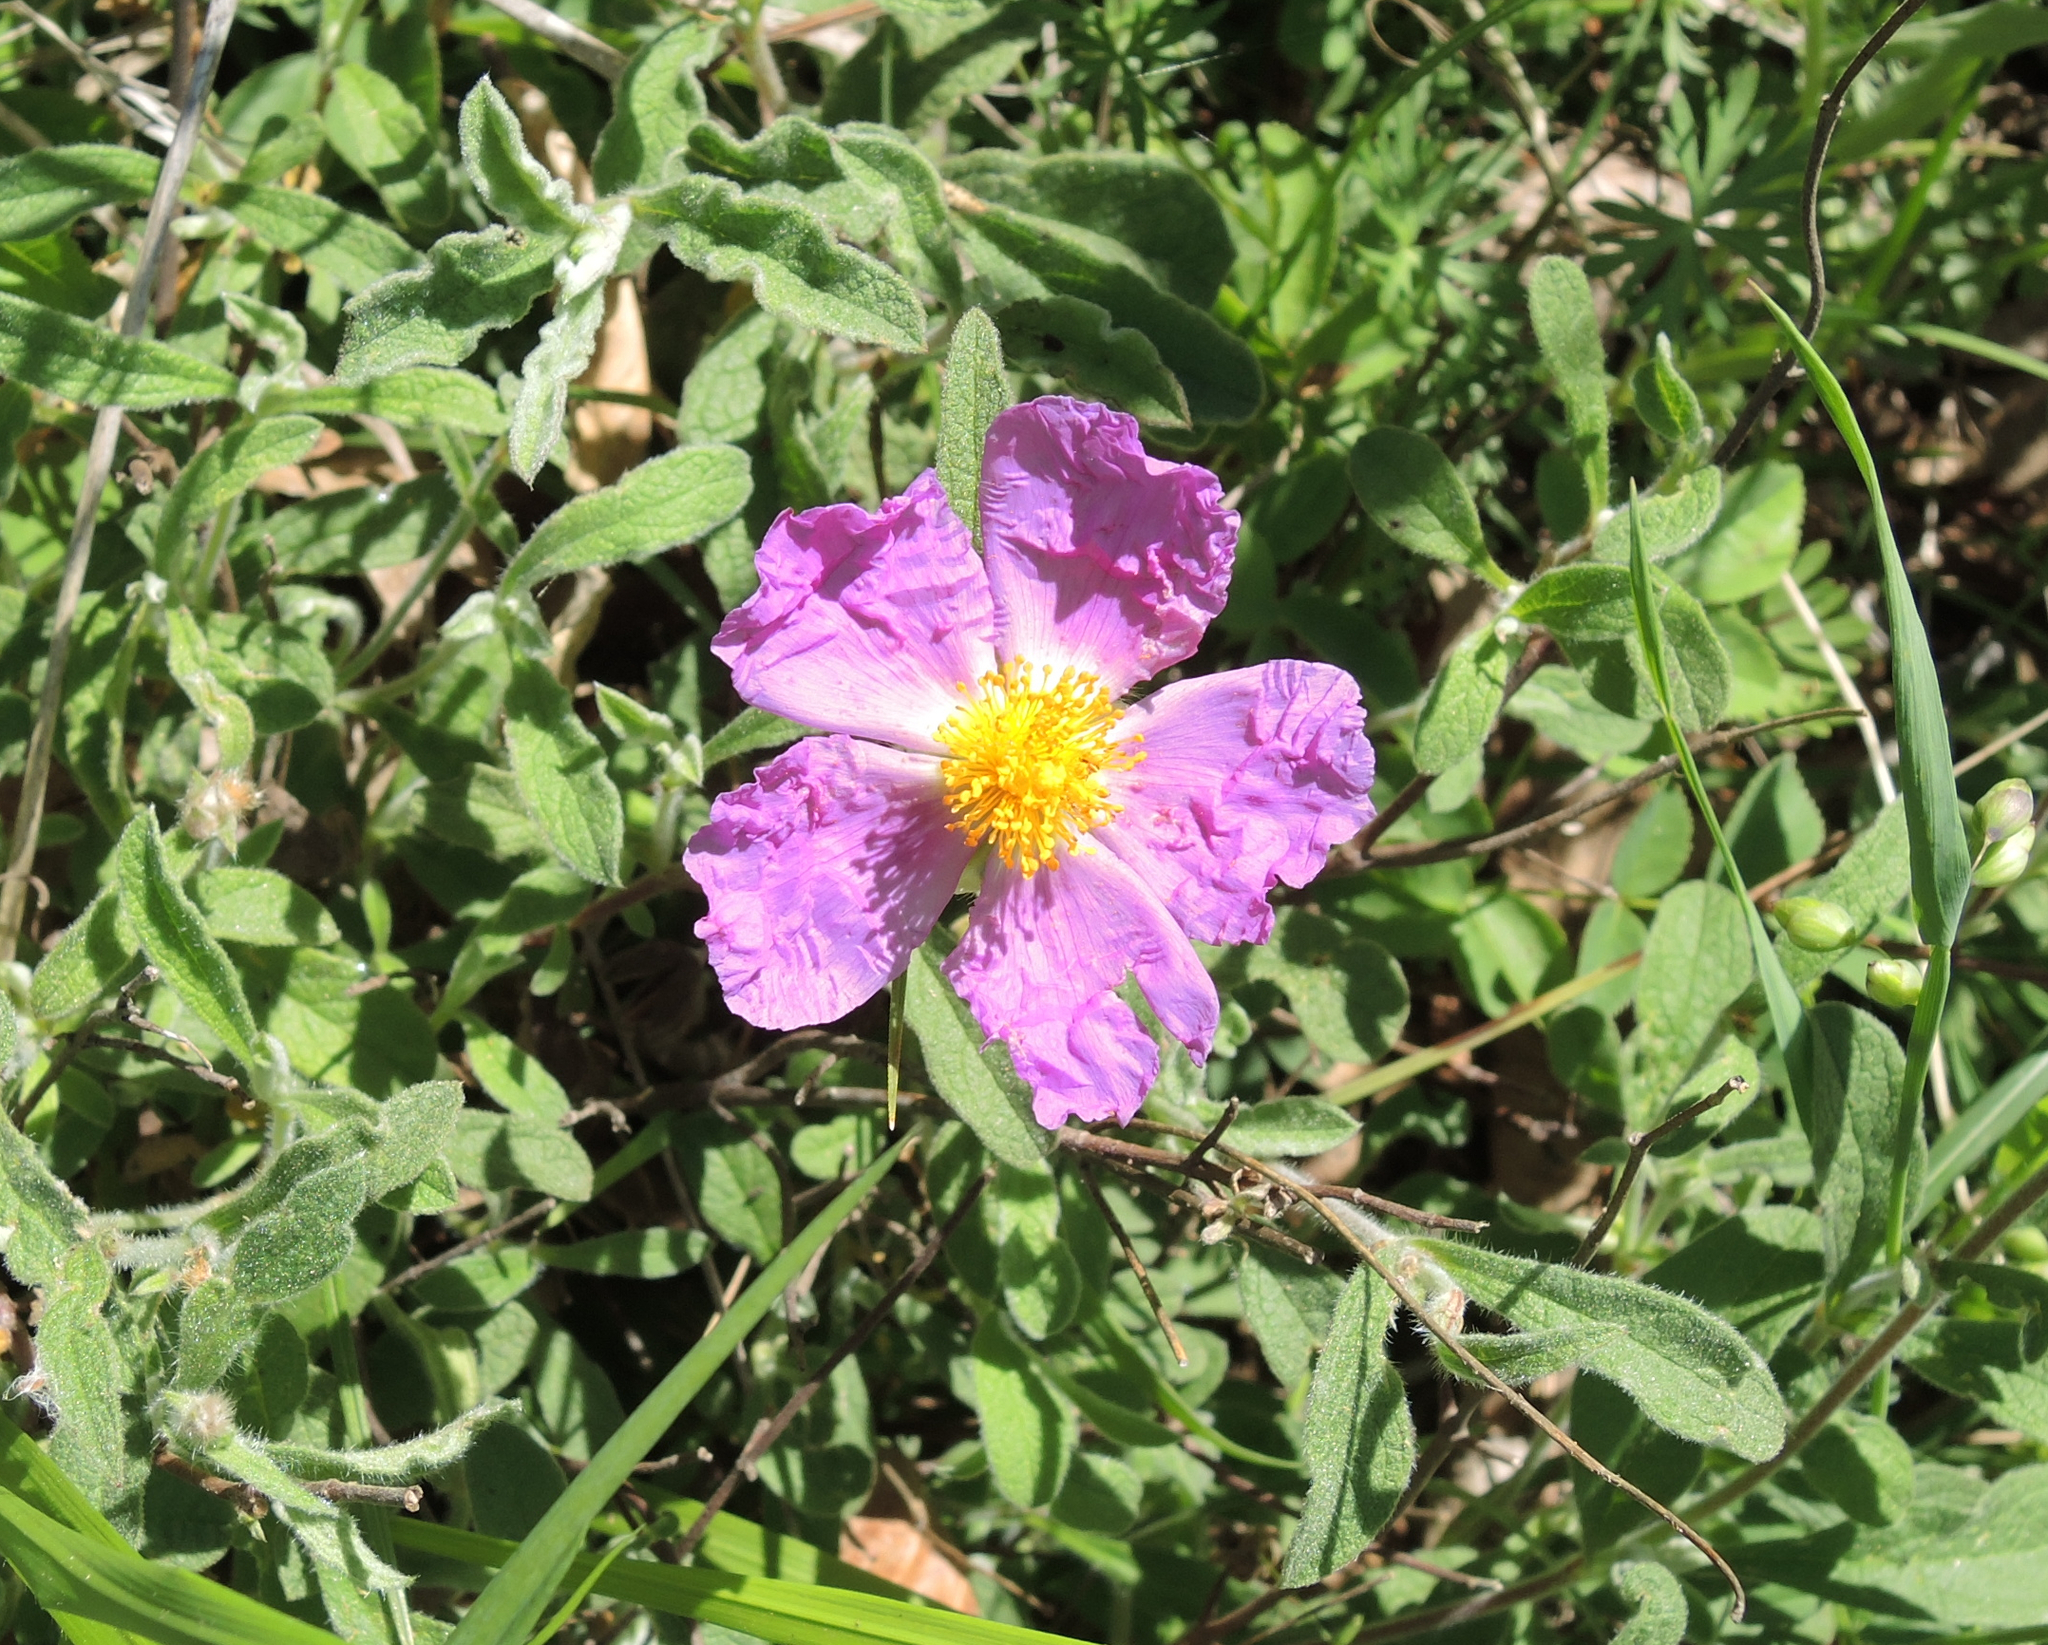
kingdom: Plantae
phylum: Tracheophyta
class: Magnoliopsida
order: Malvales
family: Cistaceae
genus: Cistus
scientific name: Cistus creticus
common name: Cretan rockrose
